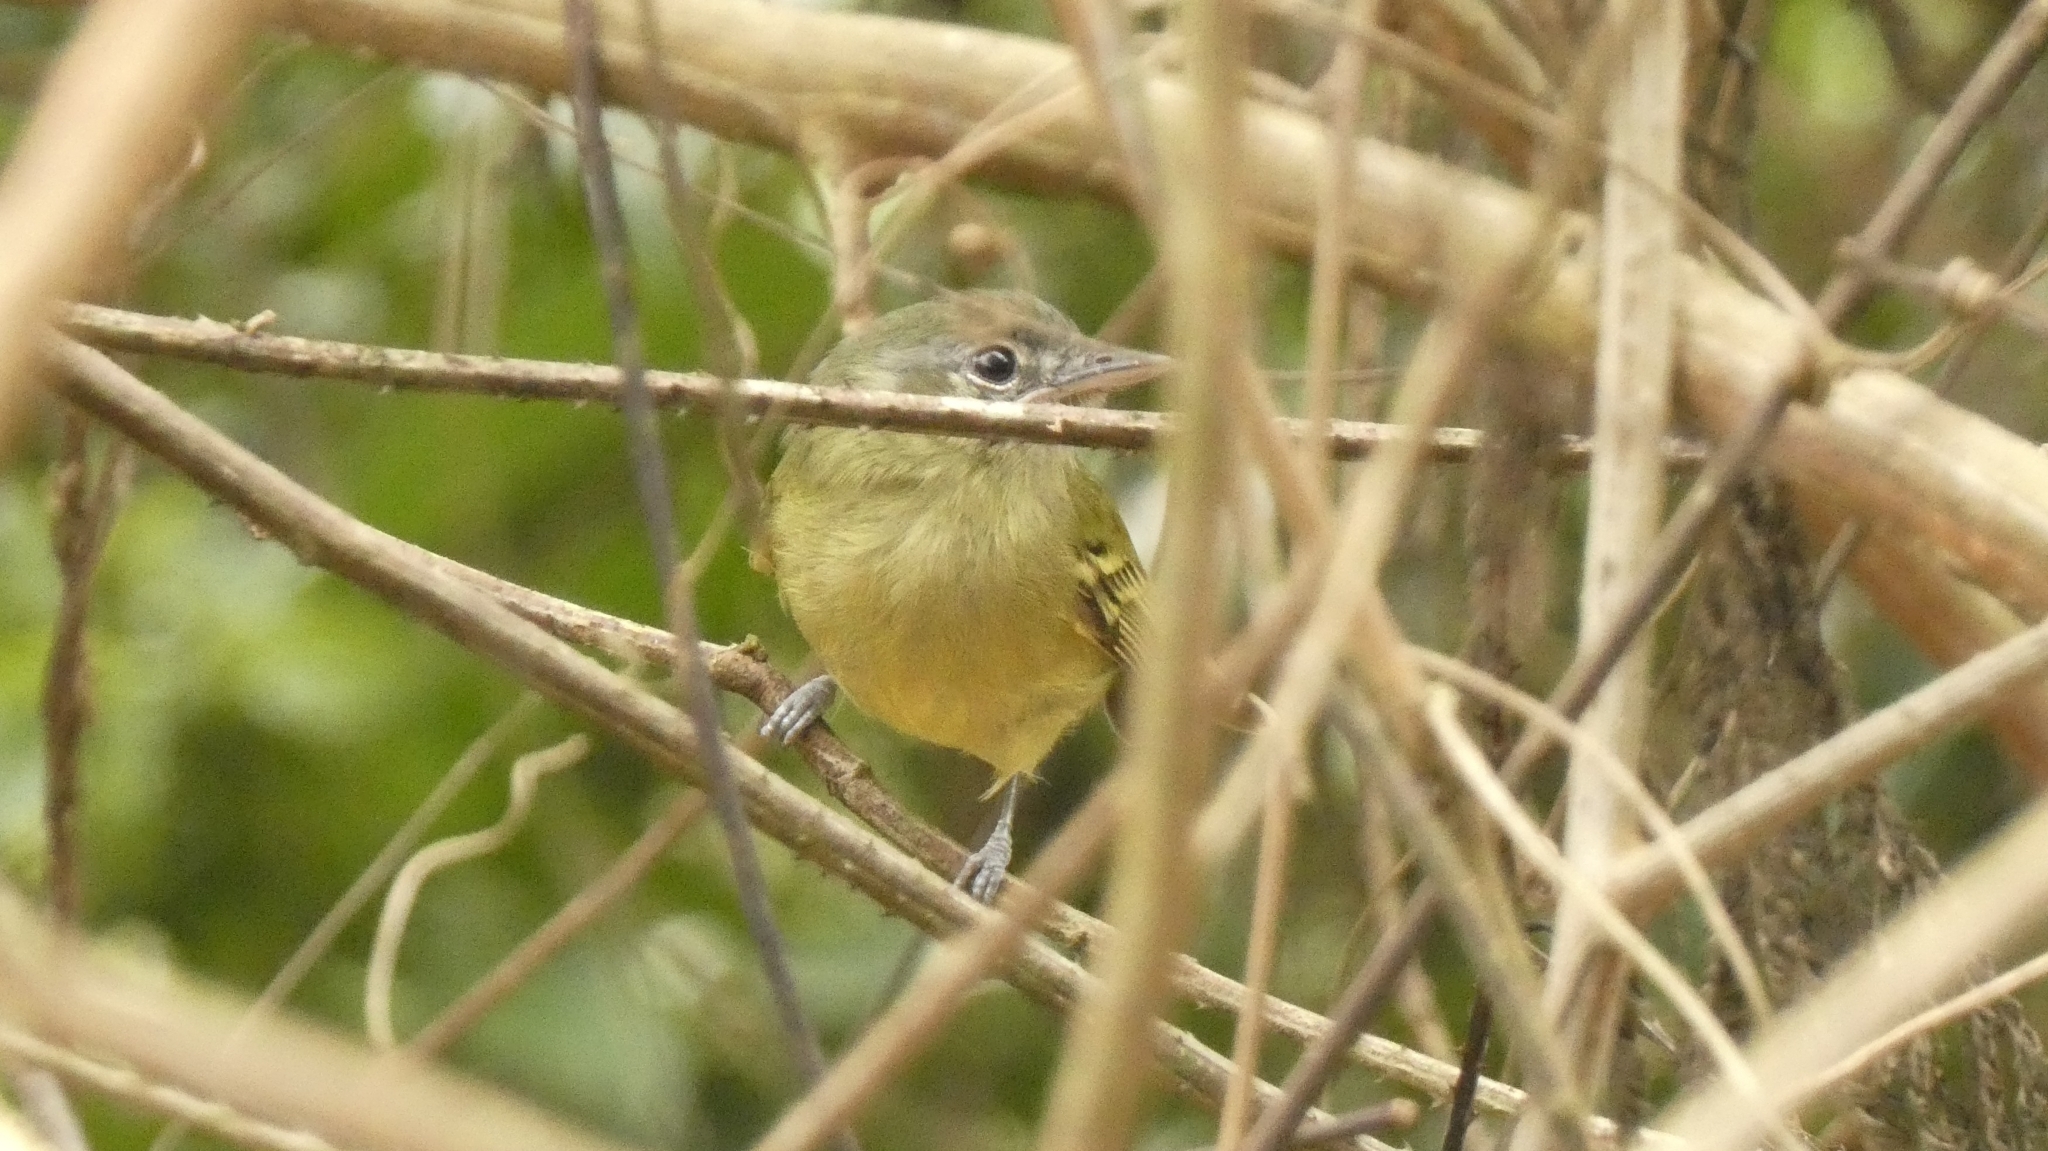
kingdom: Animalia
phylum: Chordata
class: Aves
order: Passeriformes
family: Tyrannidae
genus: Tolmomyias
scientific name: Tolmomyias sulphurescens
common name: Yellow-olive flycatcher
